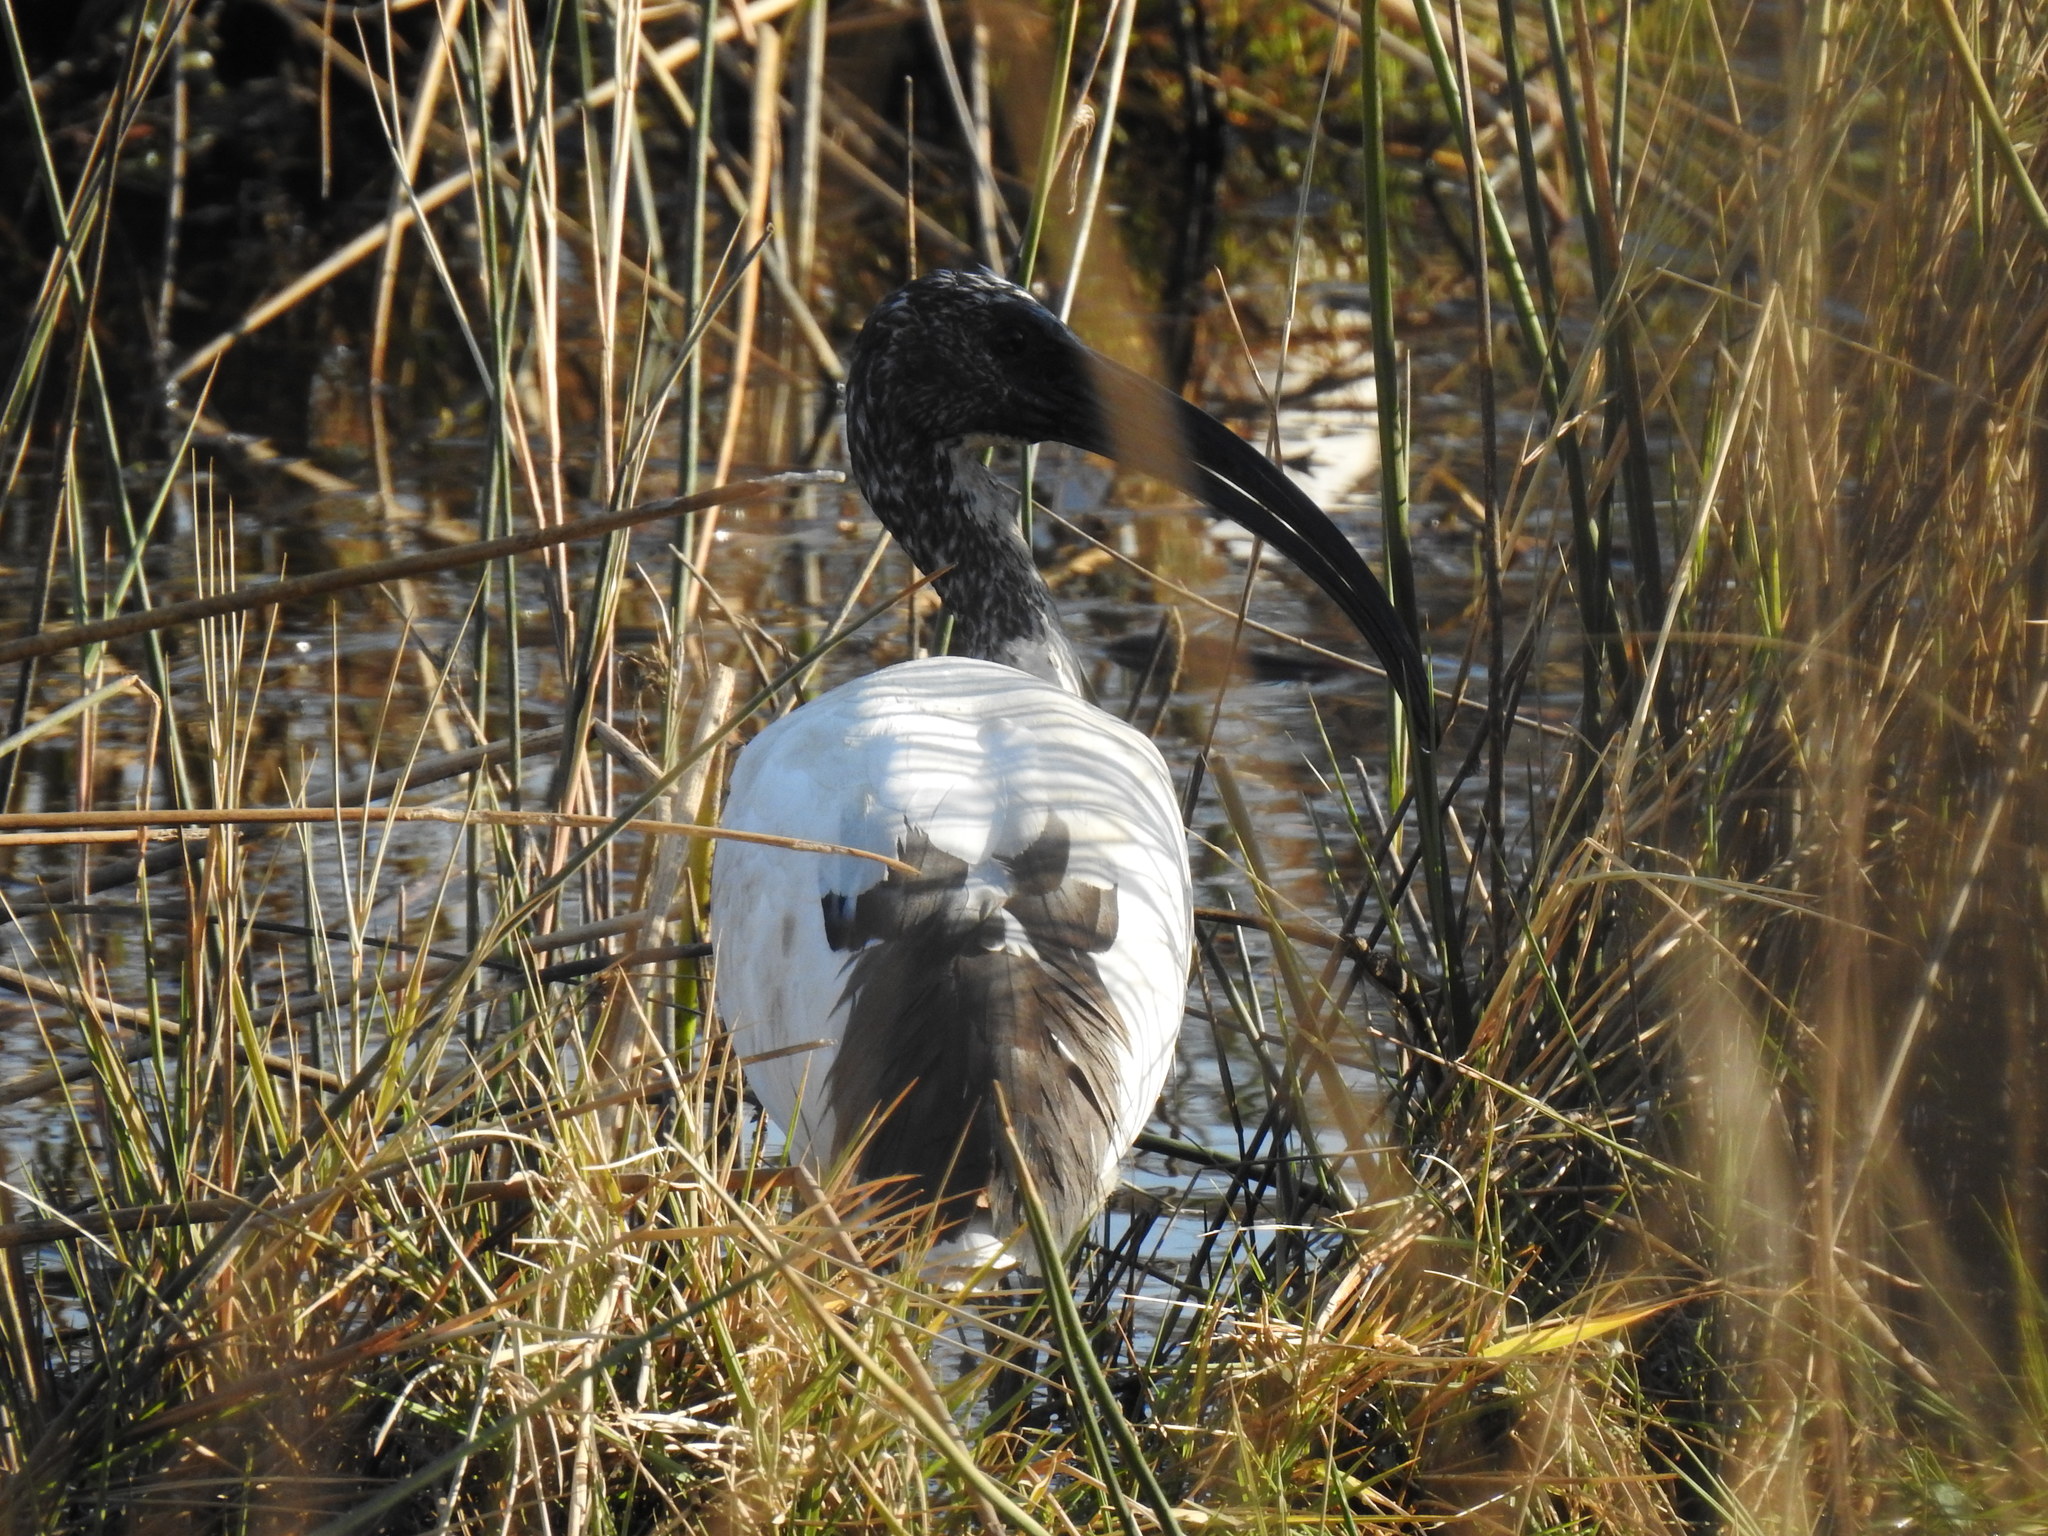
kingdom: Animalia
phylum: Chordata
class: Aves
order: Pelecaniformes
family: Threskiornithidae
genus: Threskiornis
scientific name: Threskiornis aethiopicus
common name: Sacred ibis
